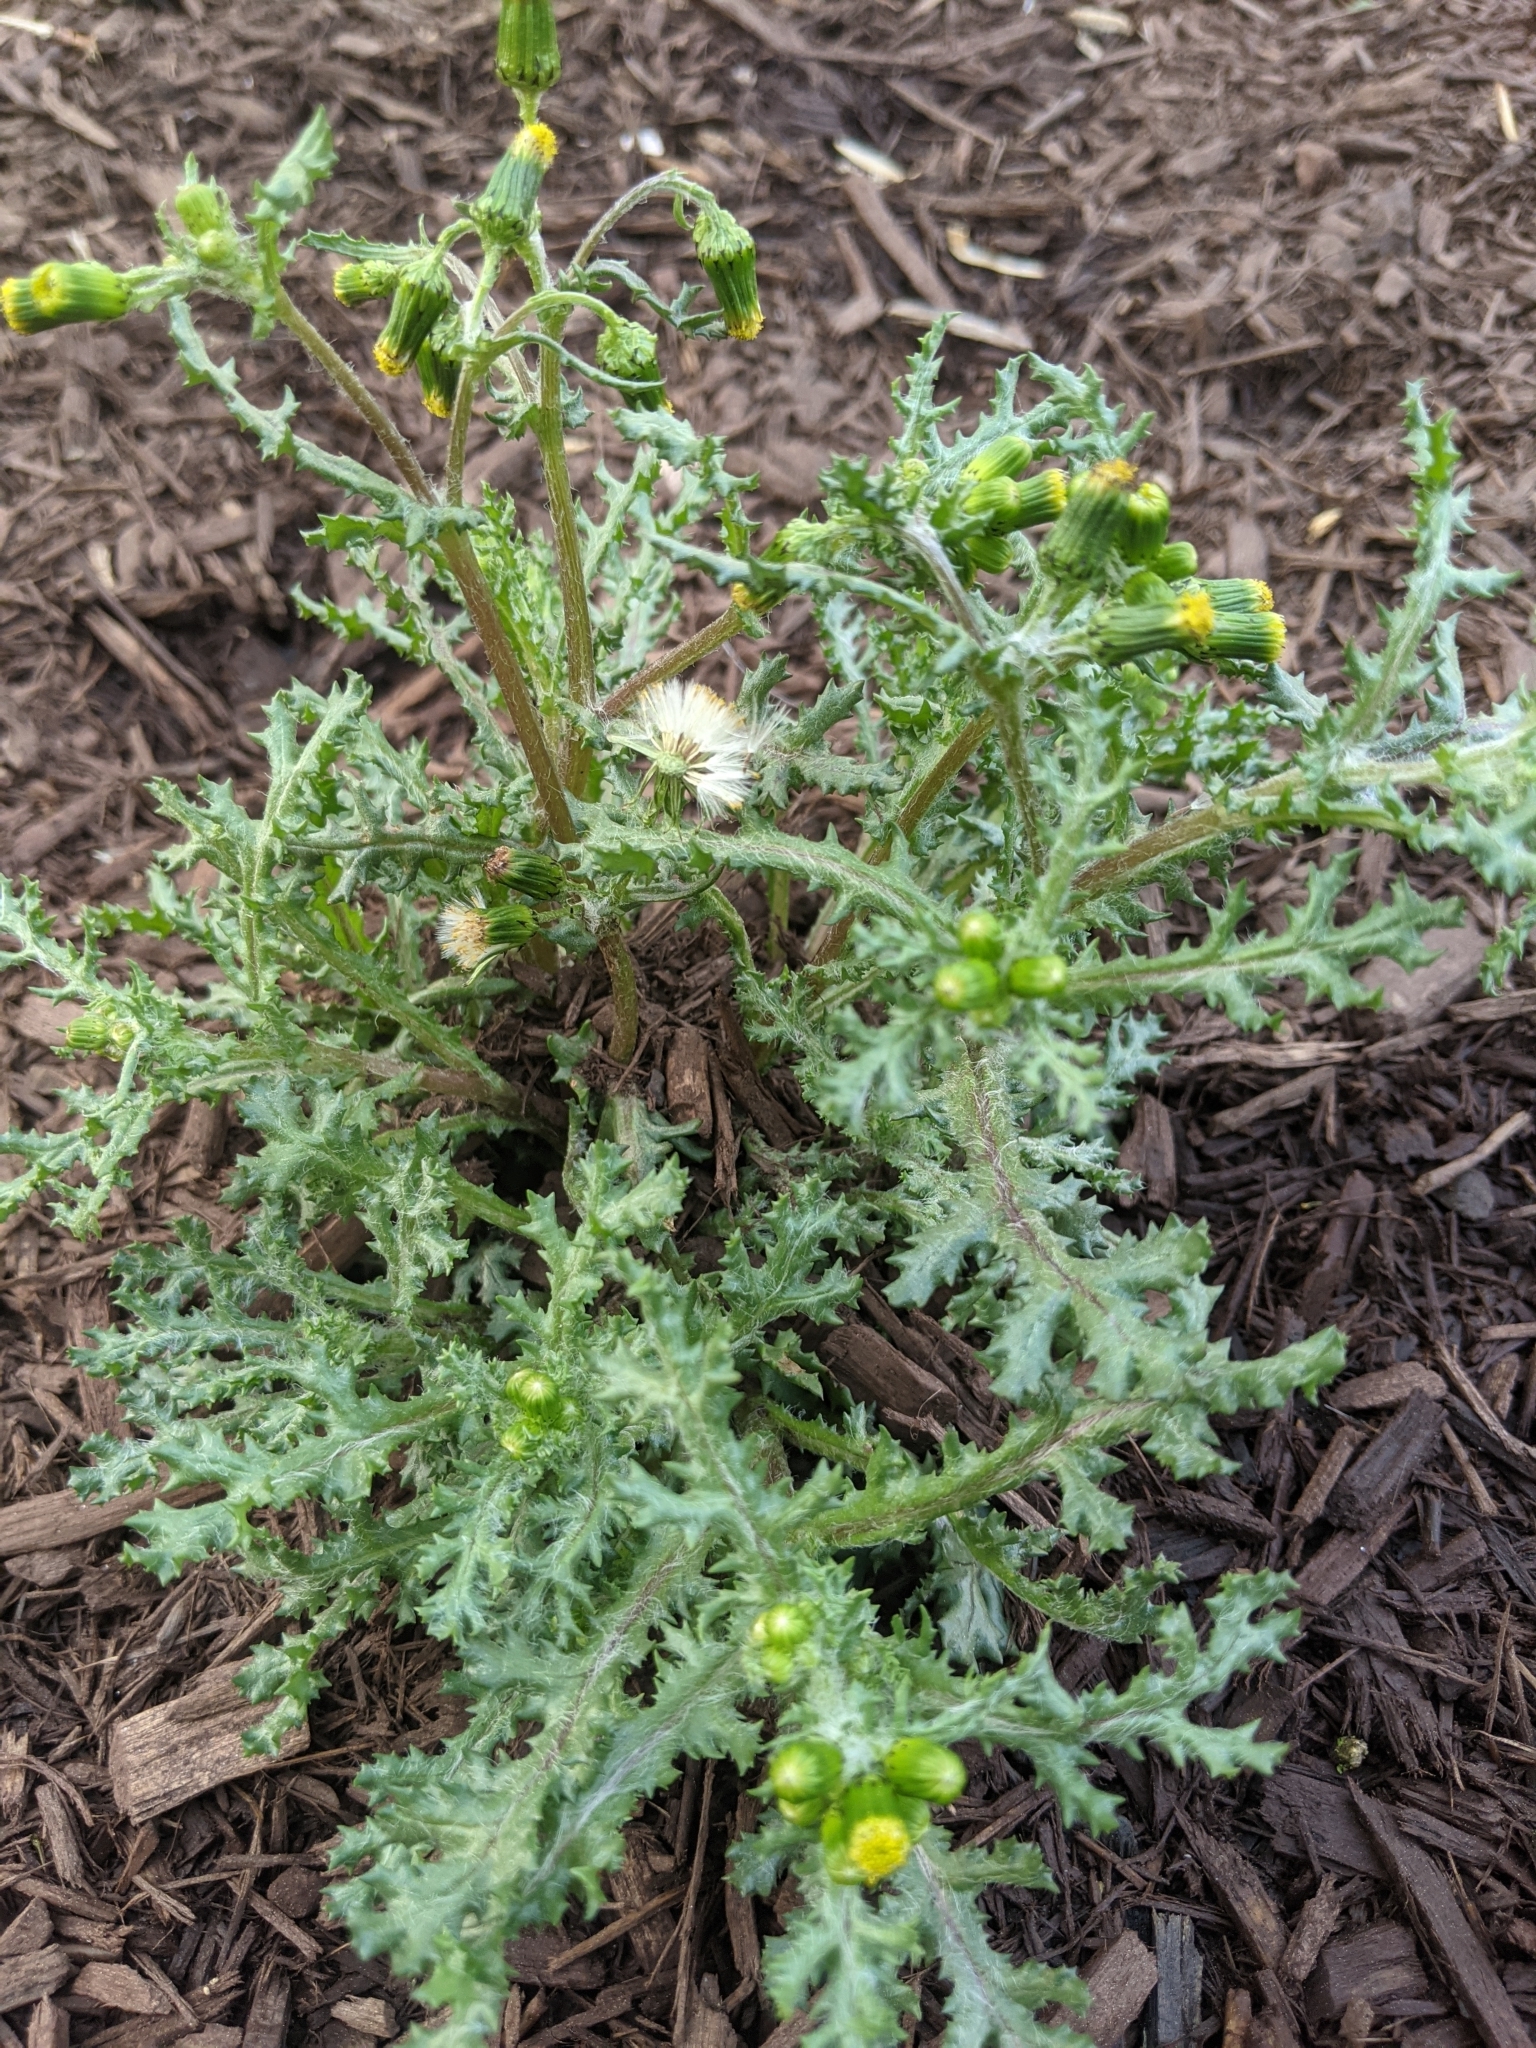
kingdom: Plantae
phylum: Tracheophyta
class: Magnoliopsida
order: Asterales
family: Asteraceae
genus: Senecio
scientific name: Senecio vulgaris
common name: Old-man-in-the-spring
